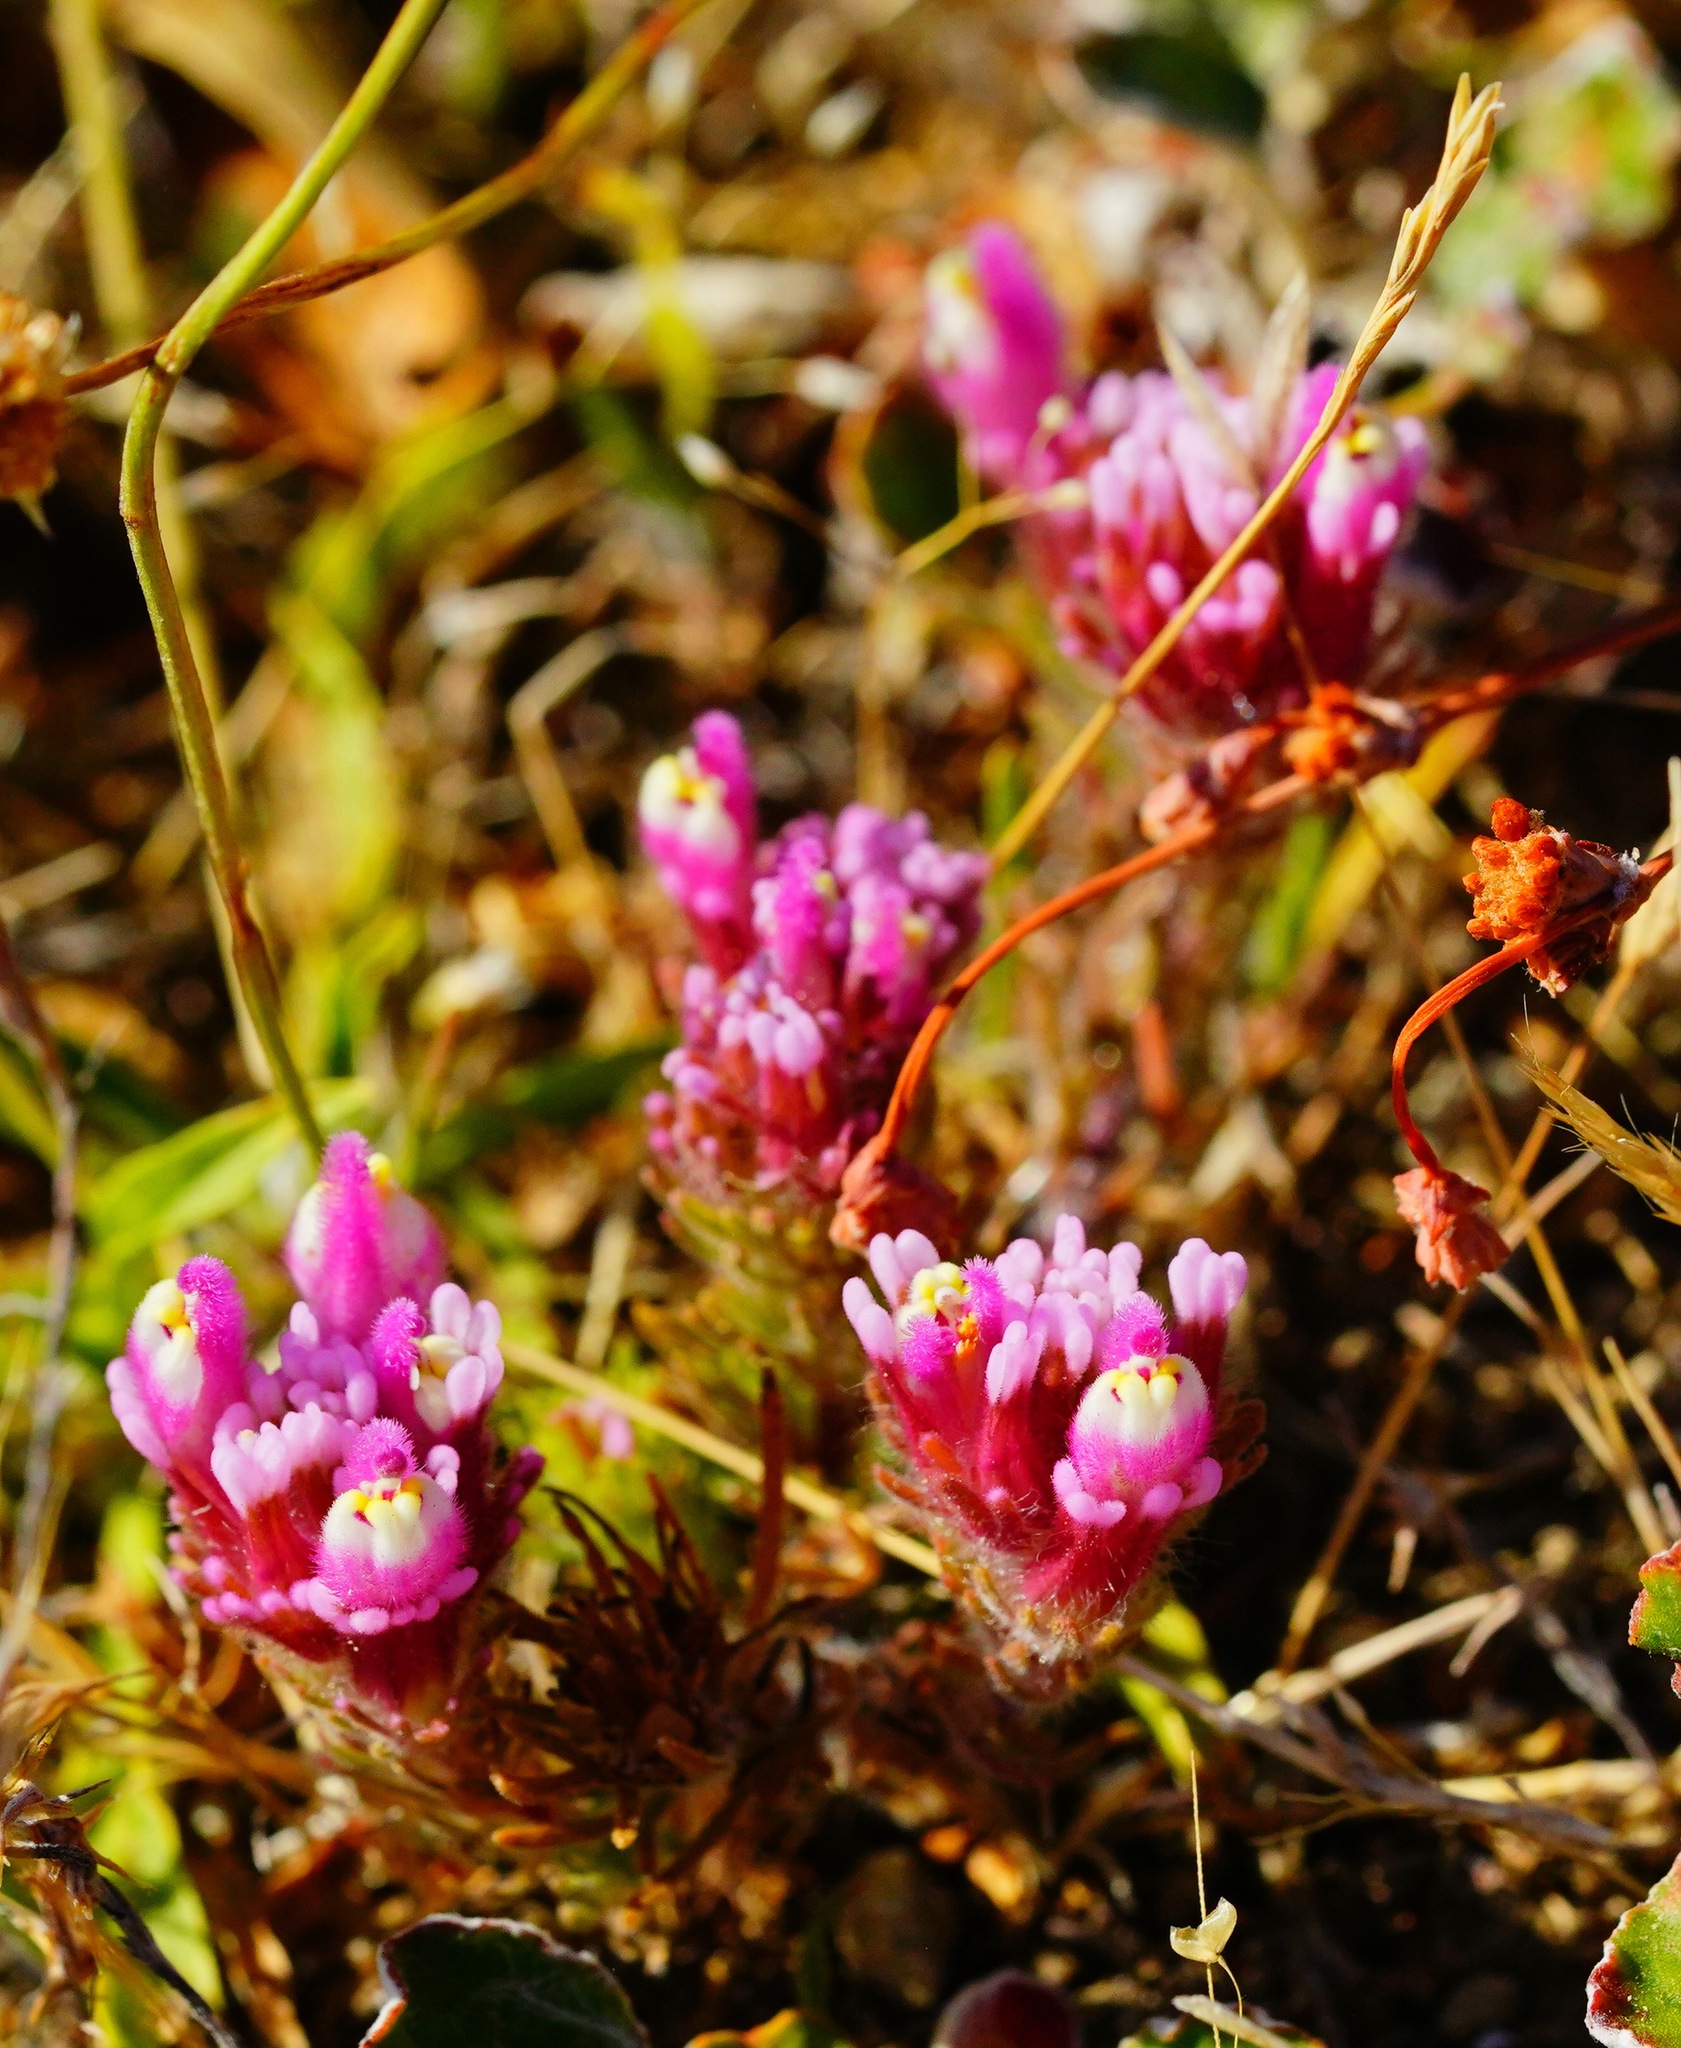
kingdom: Plantae
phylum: Tracheophyta
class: Magnoliopsida
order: Lamiales
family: Orobanchaceae
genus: Castilleja
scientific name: Castilleja exserta
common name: Purple owl-clover
